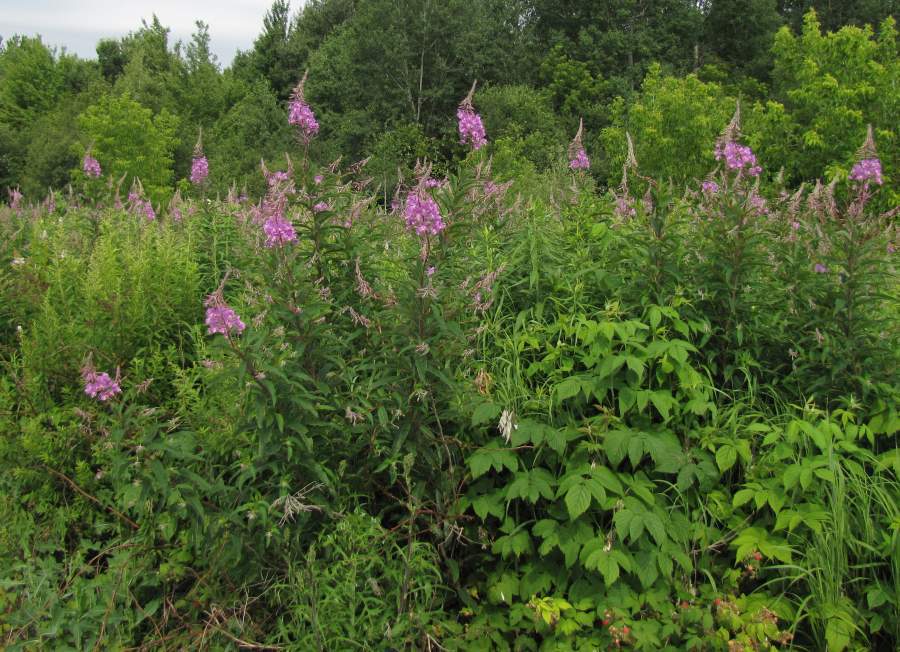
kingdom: Plantae
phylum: Tracheophyta
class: Magnoliopsida
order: Myrtales
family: Onagraceae
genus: Chamaenerion
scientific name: Chamaenerion angustifolium
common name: Fireweed
